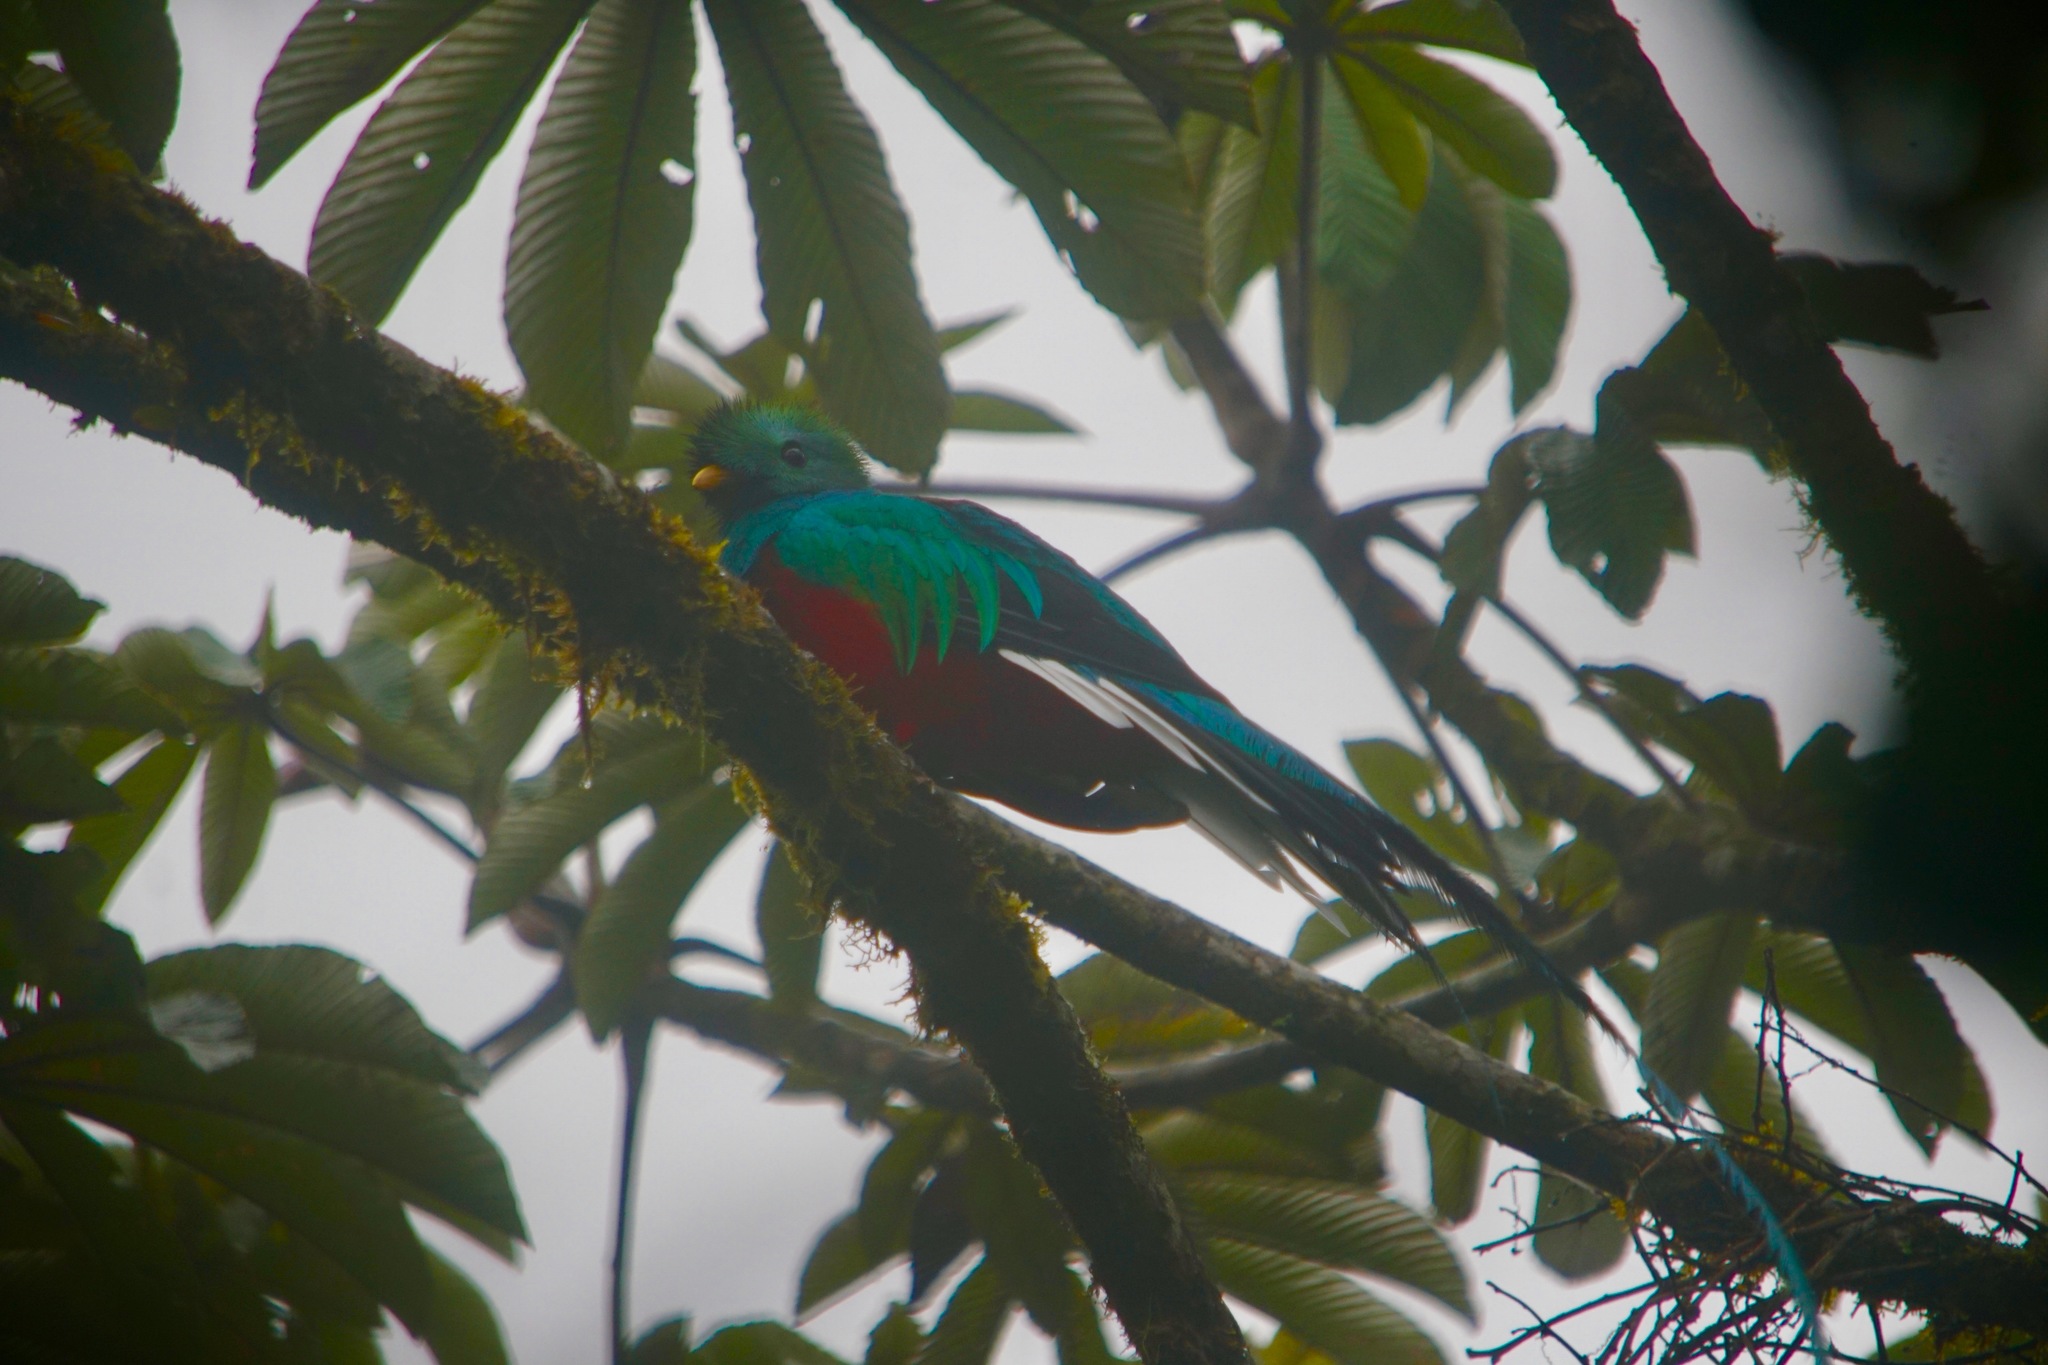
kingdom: Animalia
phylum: Chordata
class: Aves
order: Trogoniformes
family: Trogonidae
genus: Pharomachrus
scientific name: Pharomachrus mocinno
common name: Resplendent quetzal
